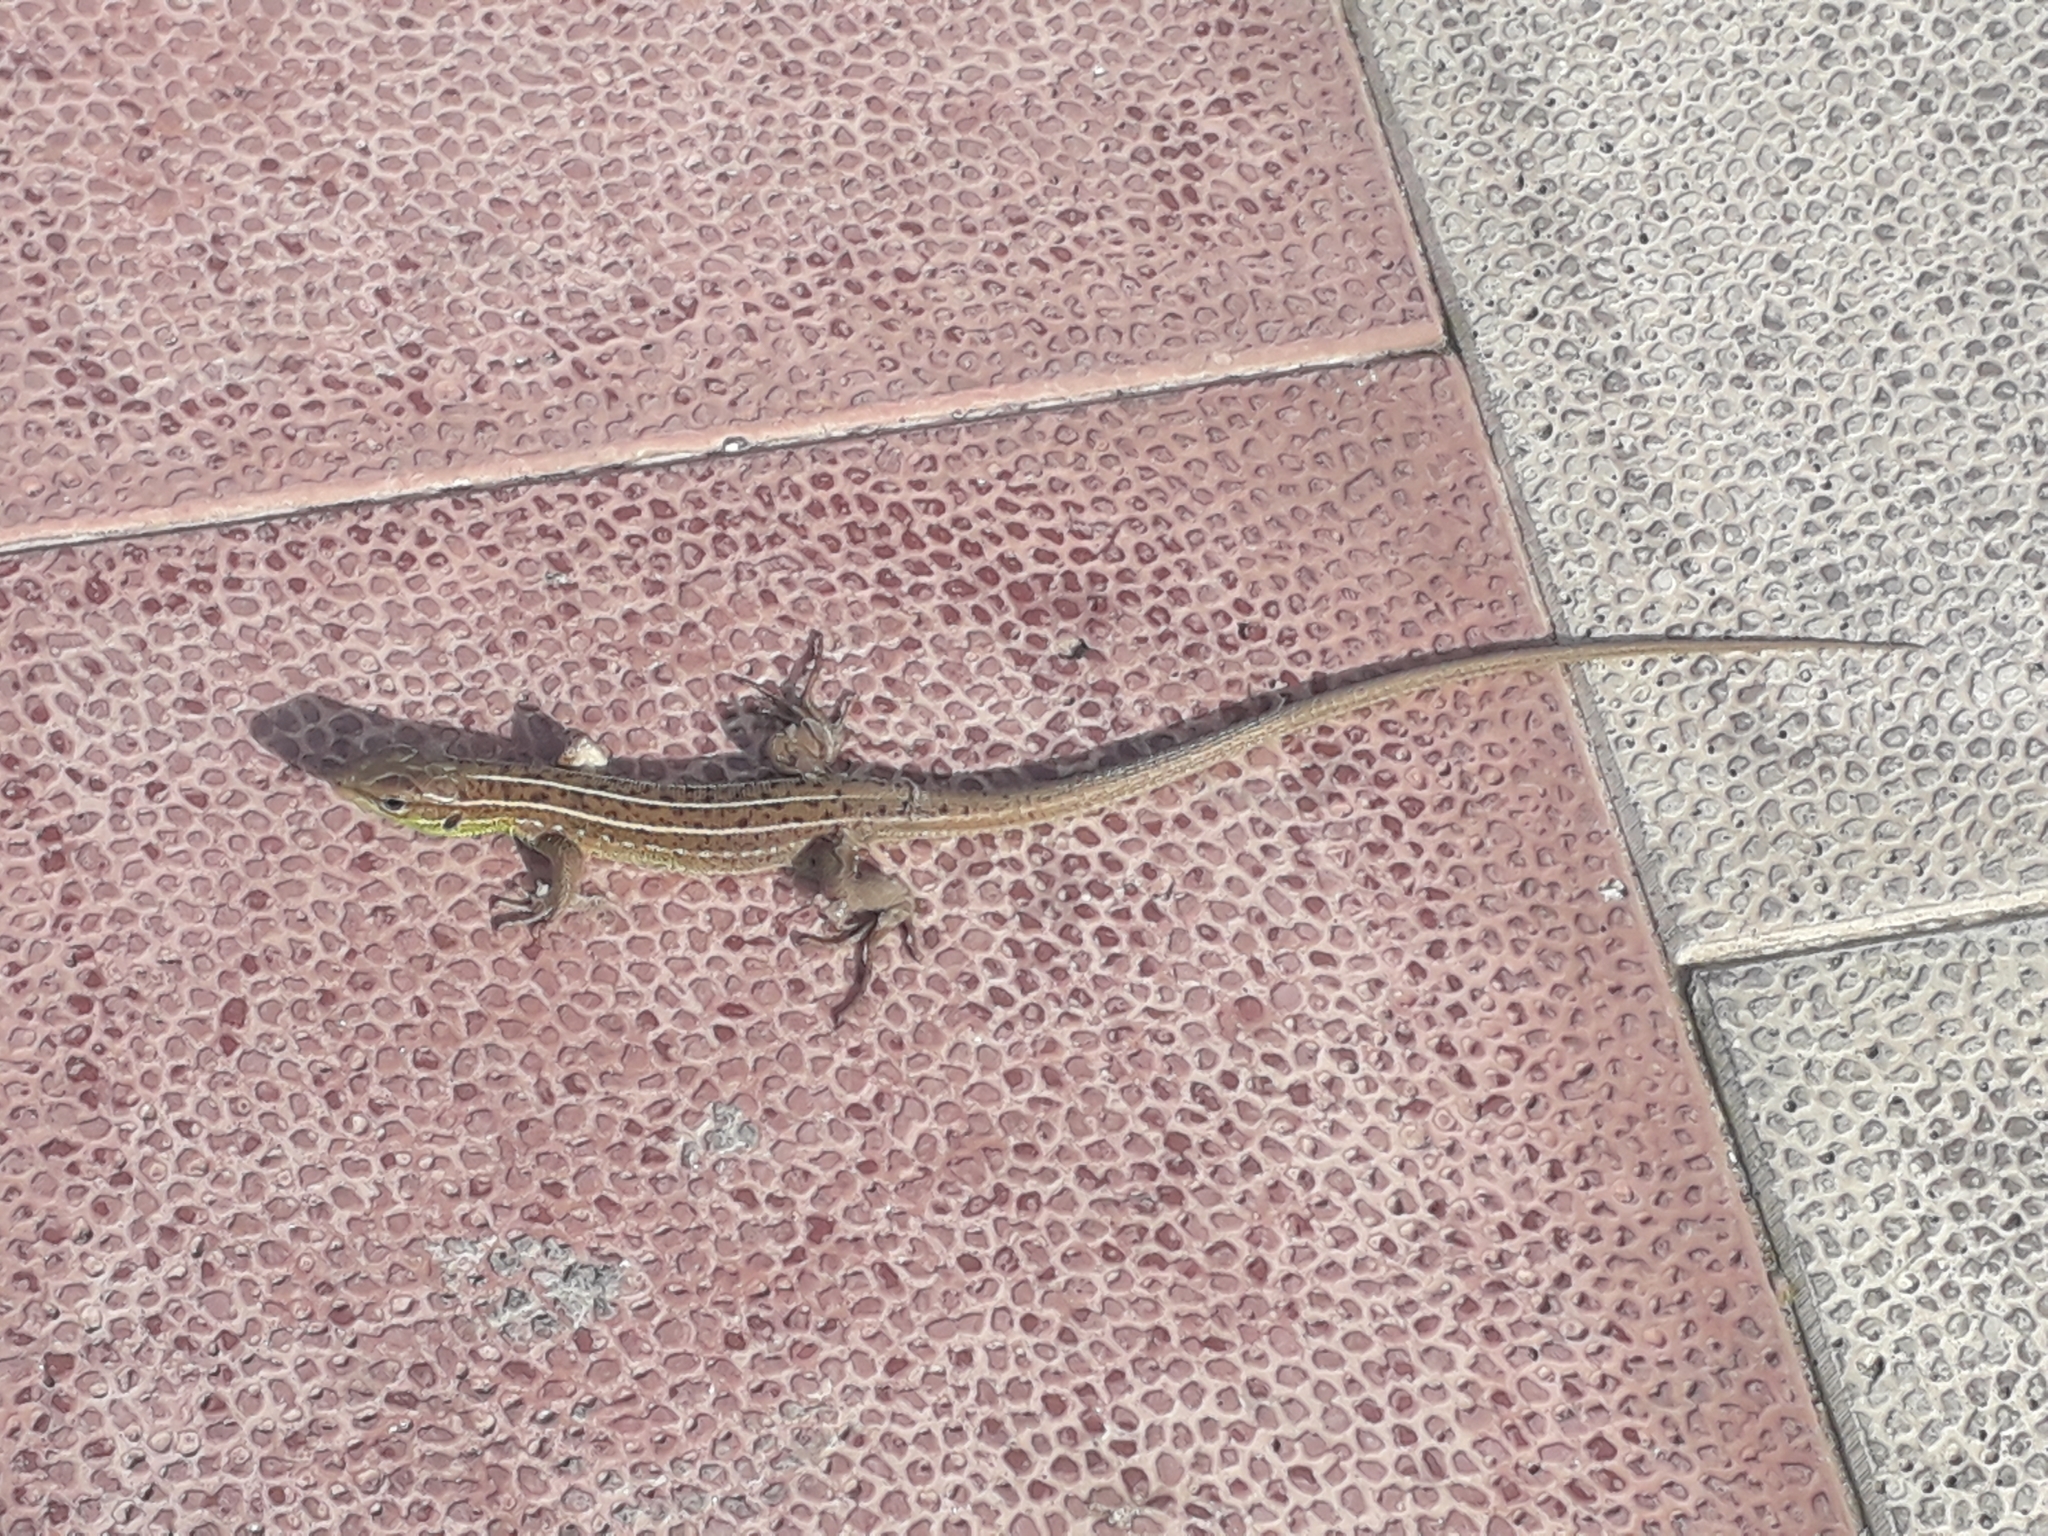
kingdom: Animalia
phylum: Chordata
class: Squamata
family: Lacertidae
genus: Lacerta
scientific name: Lacerta strigata
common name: Caspian green lizard
